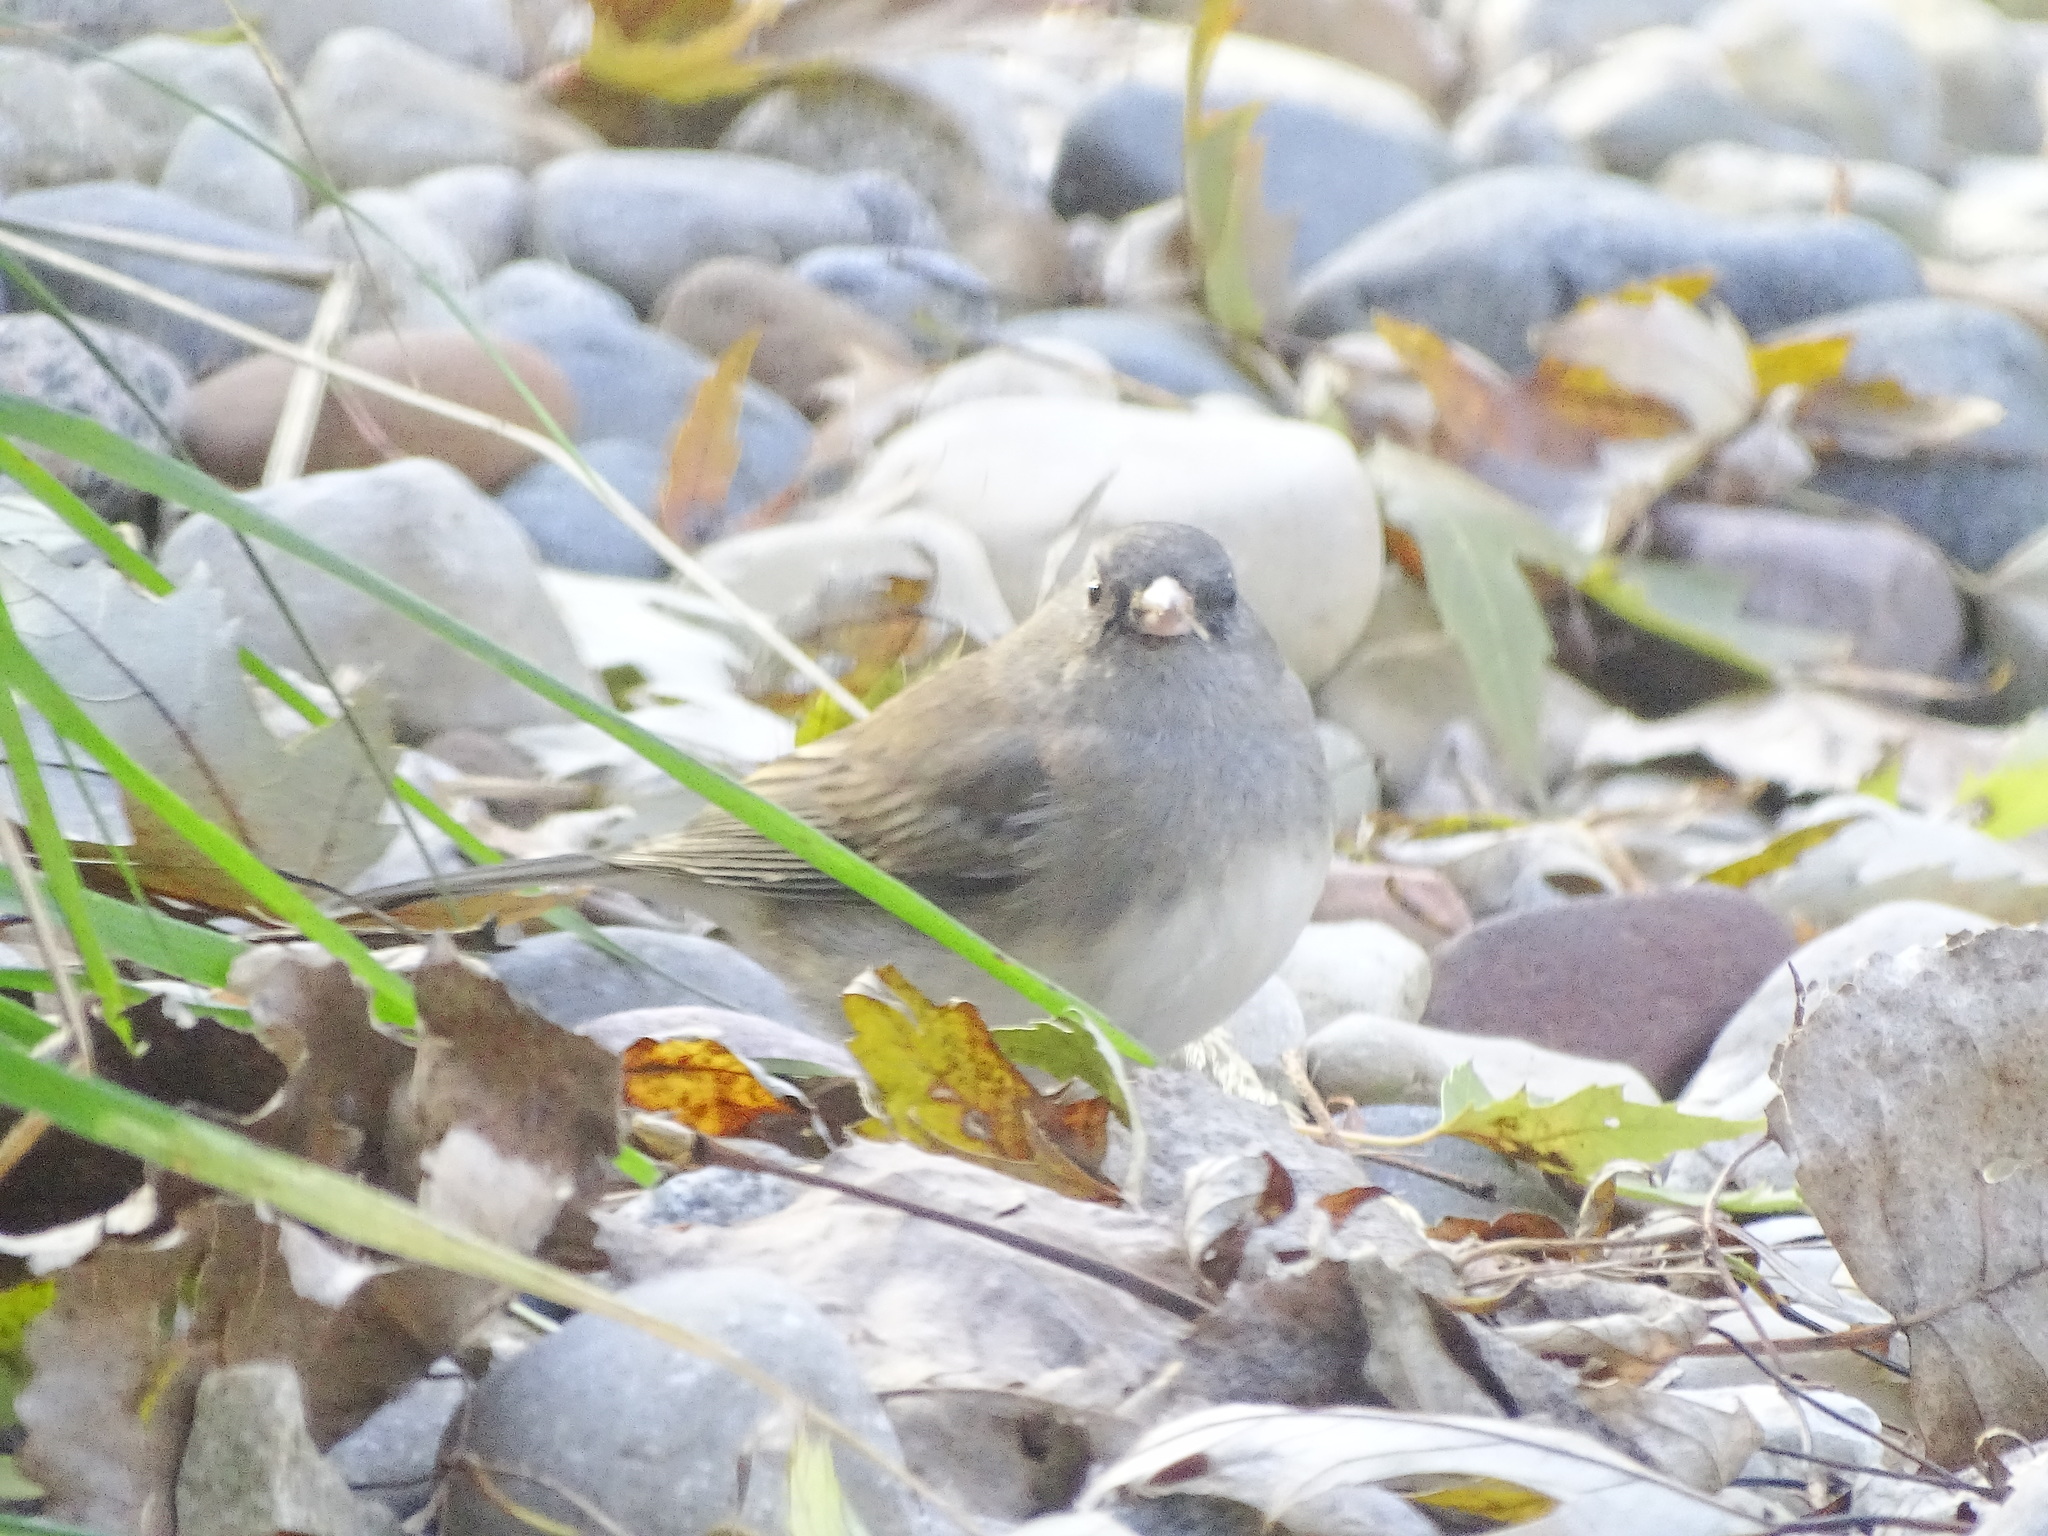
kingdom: Animalia
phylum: Chordata
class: Aves
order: Passeriformes
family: Passerellidae
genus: Junco
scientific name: Junco hyemalis
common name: Dark-eyed junco
